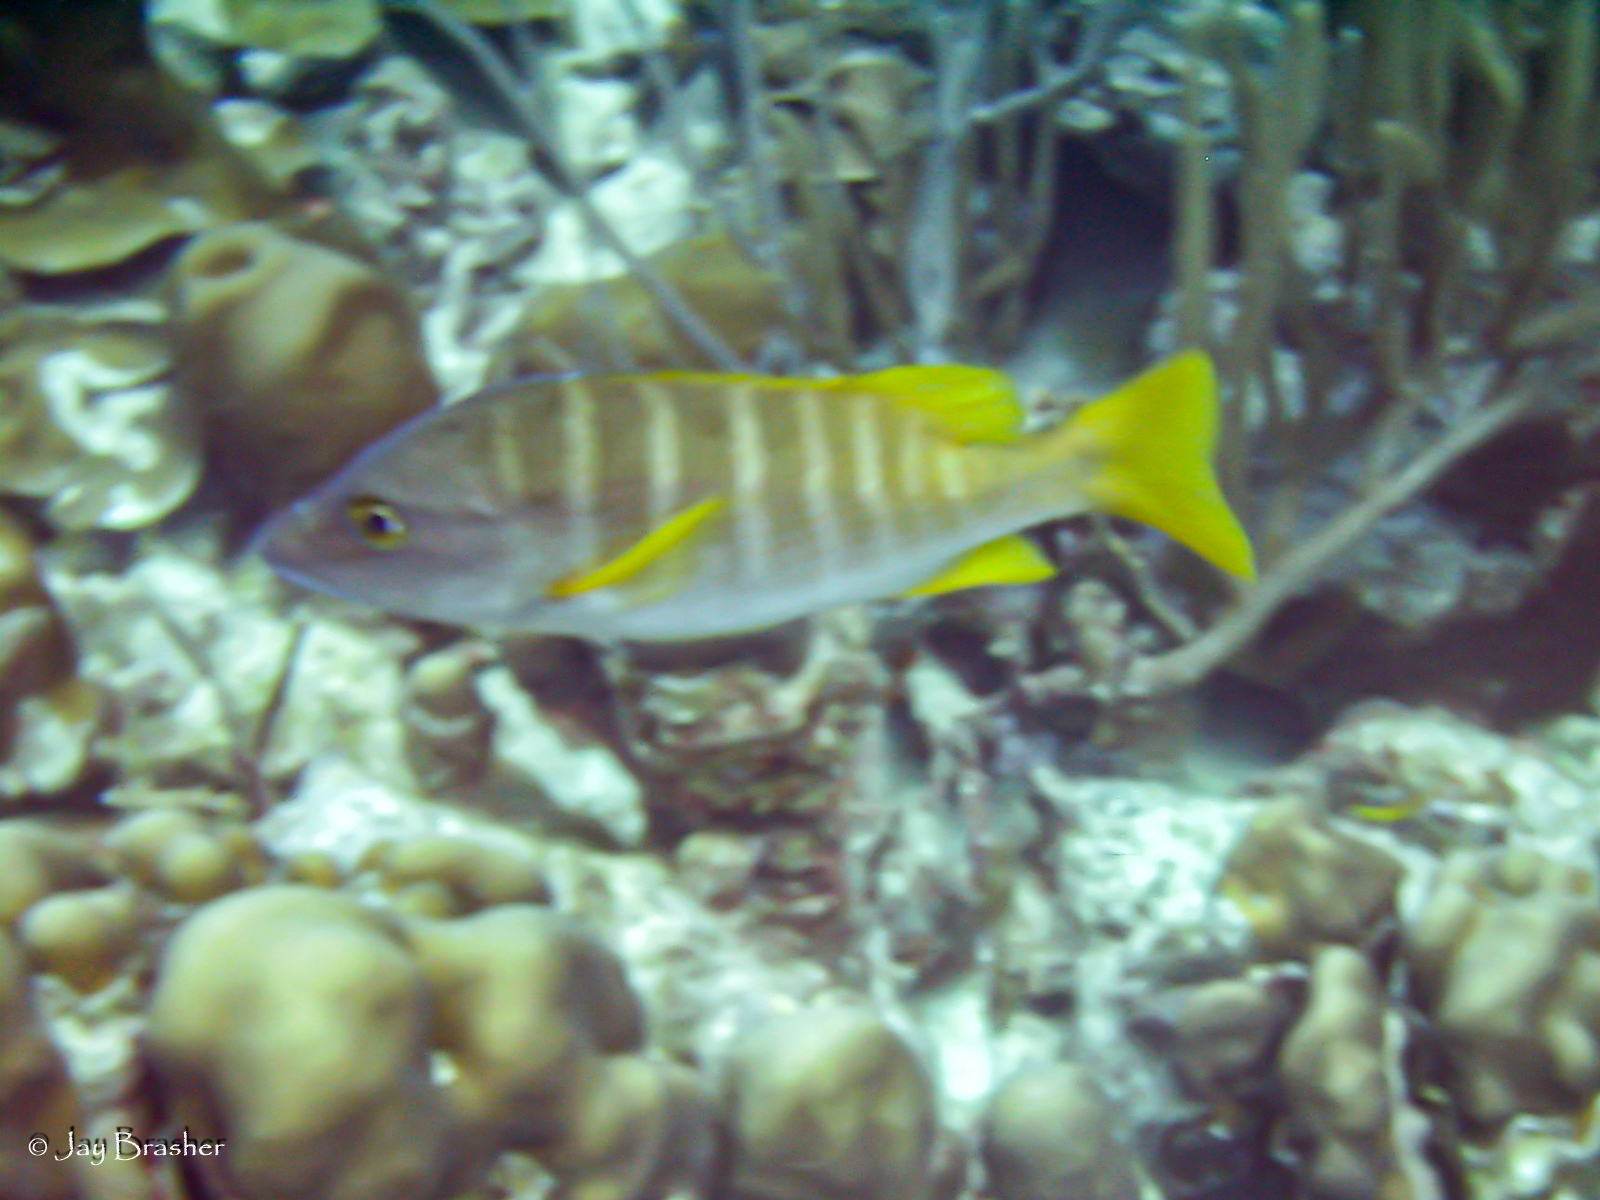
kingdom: Animalia
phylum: Chordata
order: Perciformes
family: Lutjanidae
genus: Lutjanus
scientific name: Lutjanus apodus
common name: Schoolmaster
